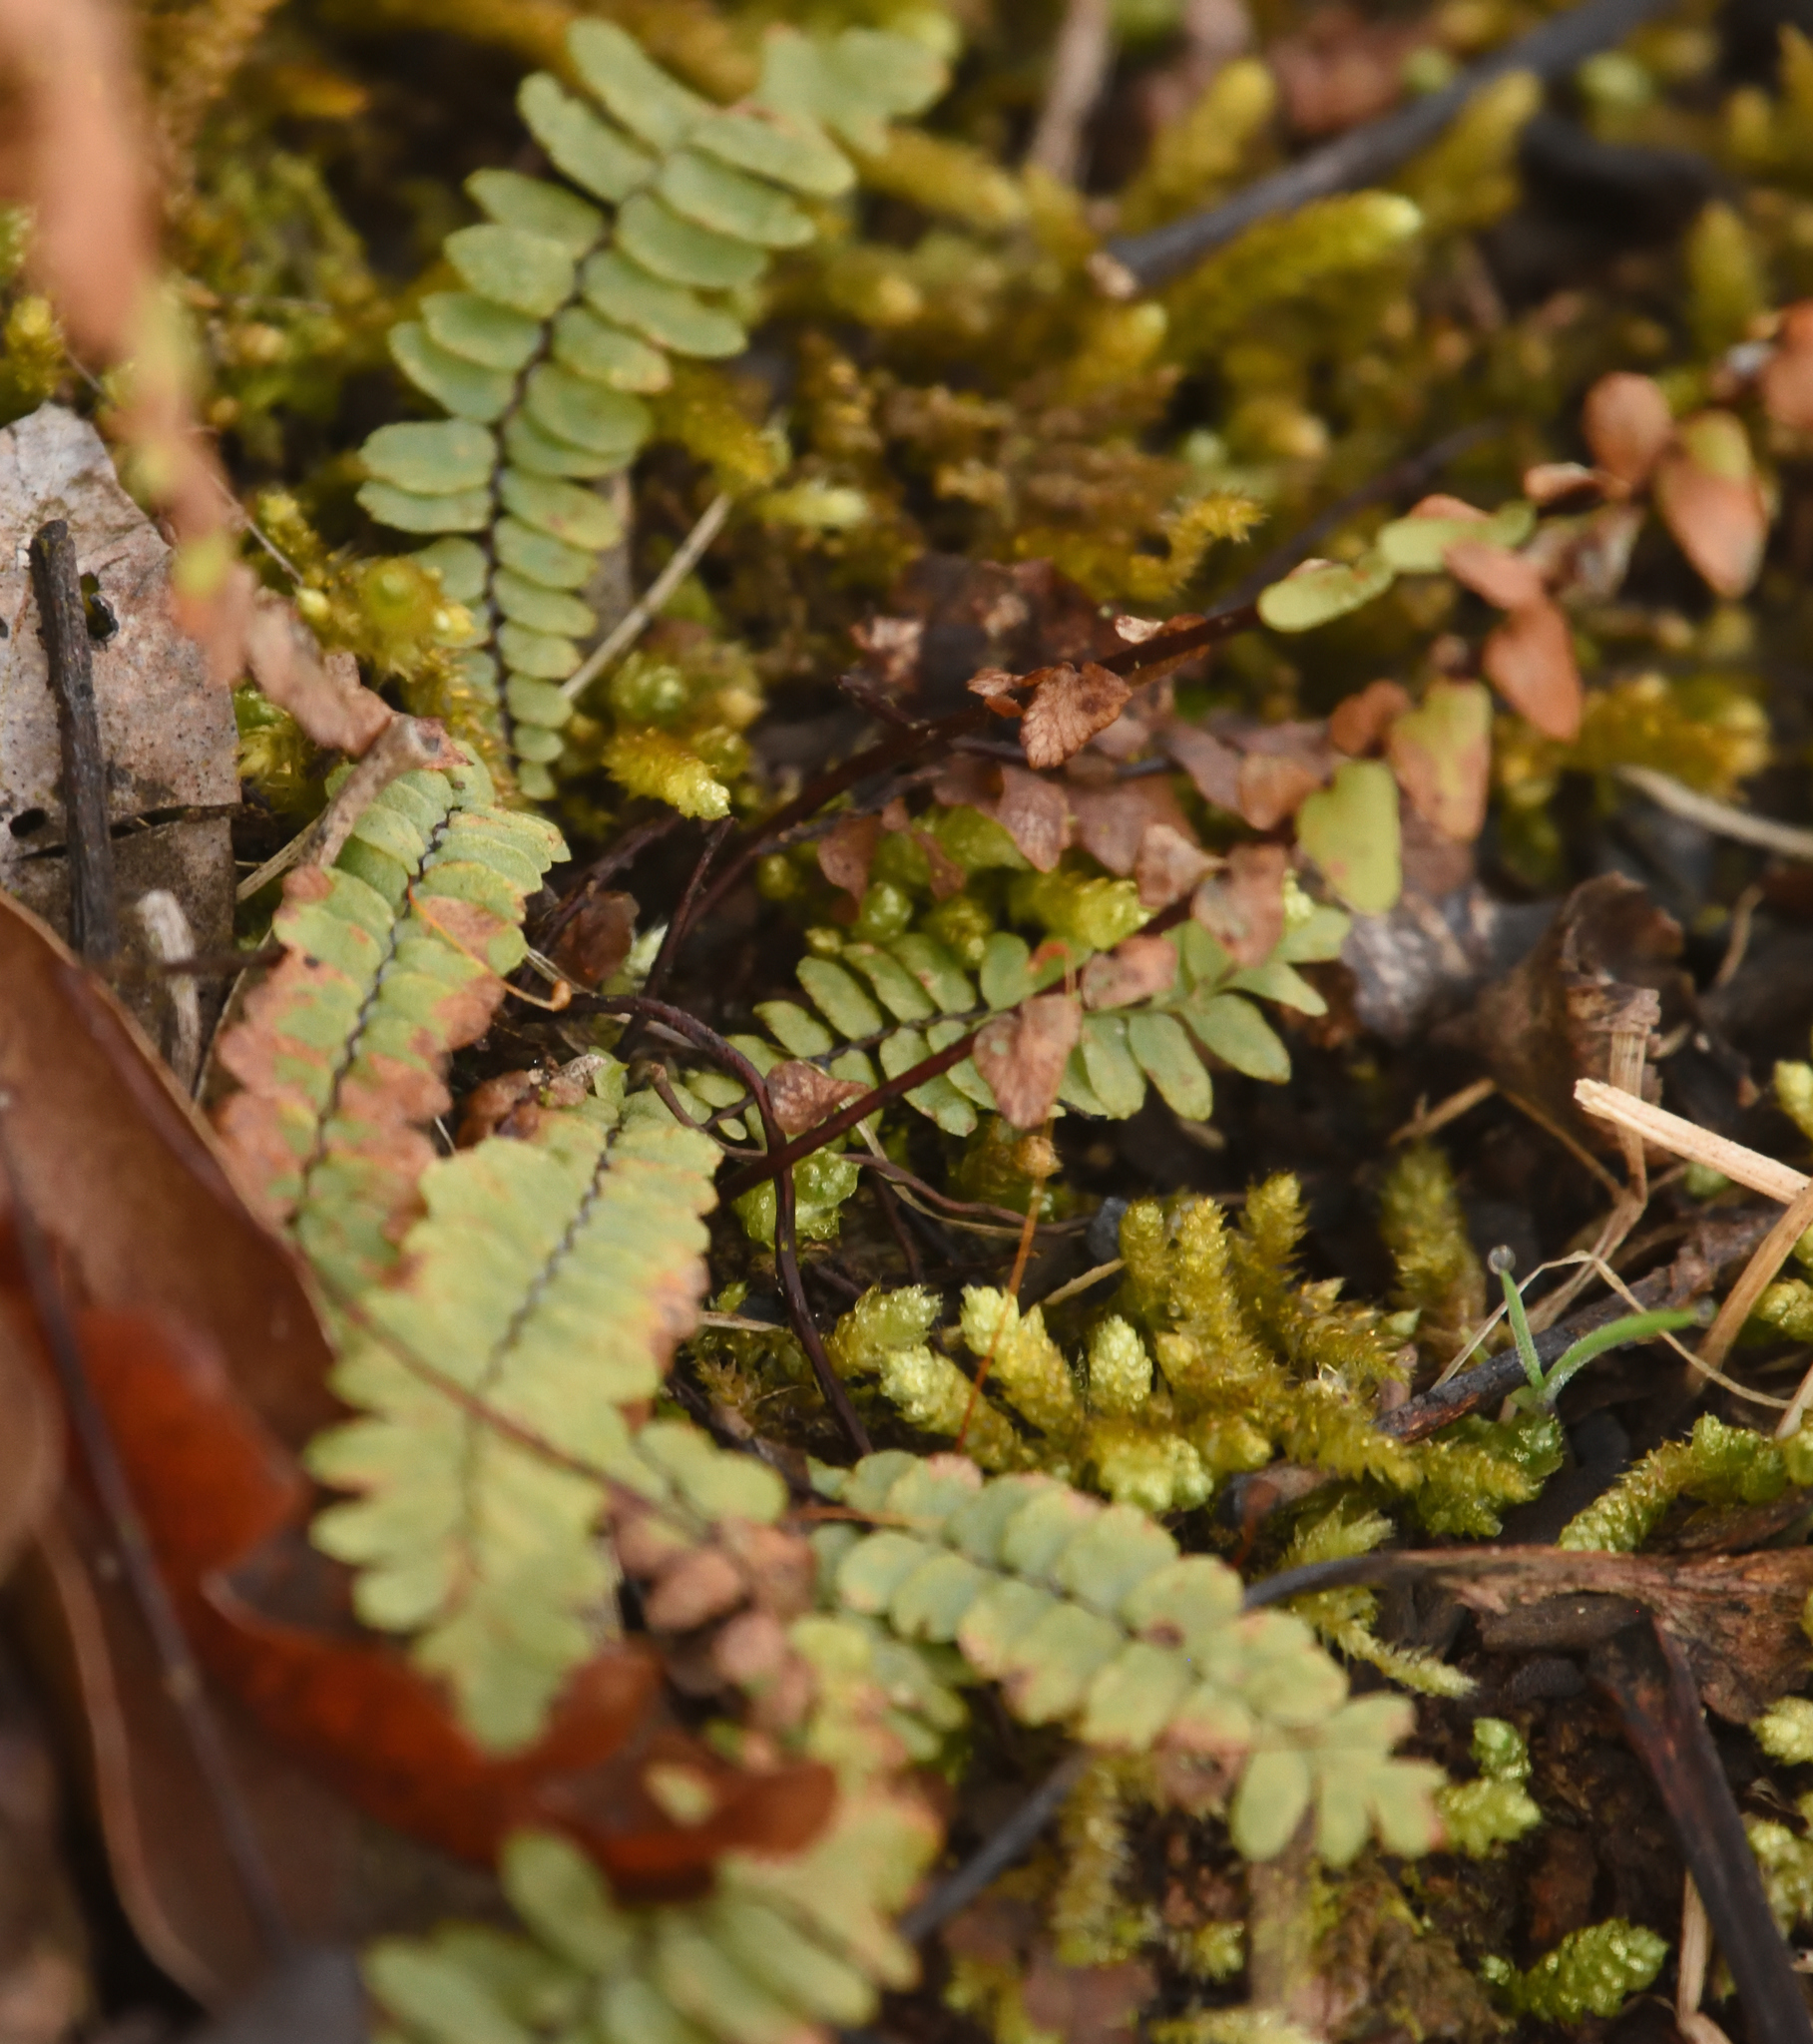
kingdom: Plantae
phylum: Tracheophyta
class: Polypodiopsida
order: Polypodiales
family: Aspleniaceae
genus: Asplenium
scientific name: Asplenium platyneuron
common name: Ebony spleenwort
